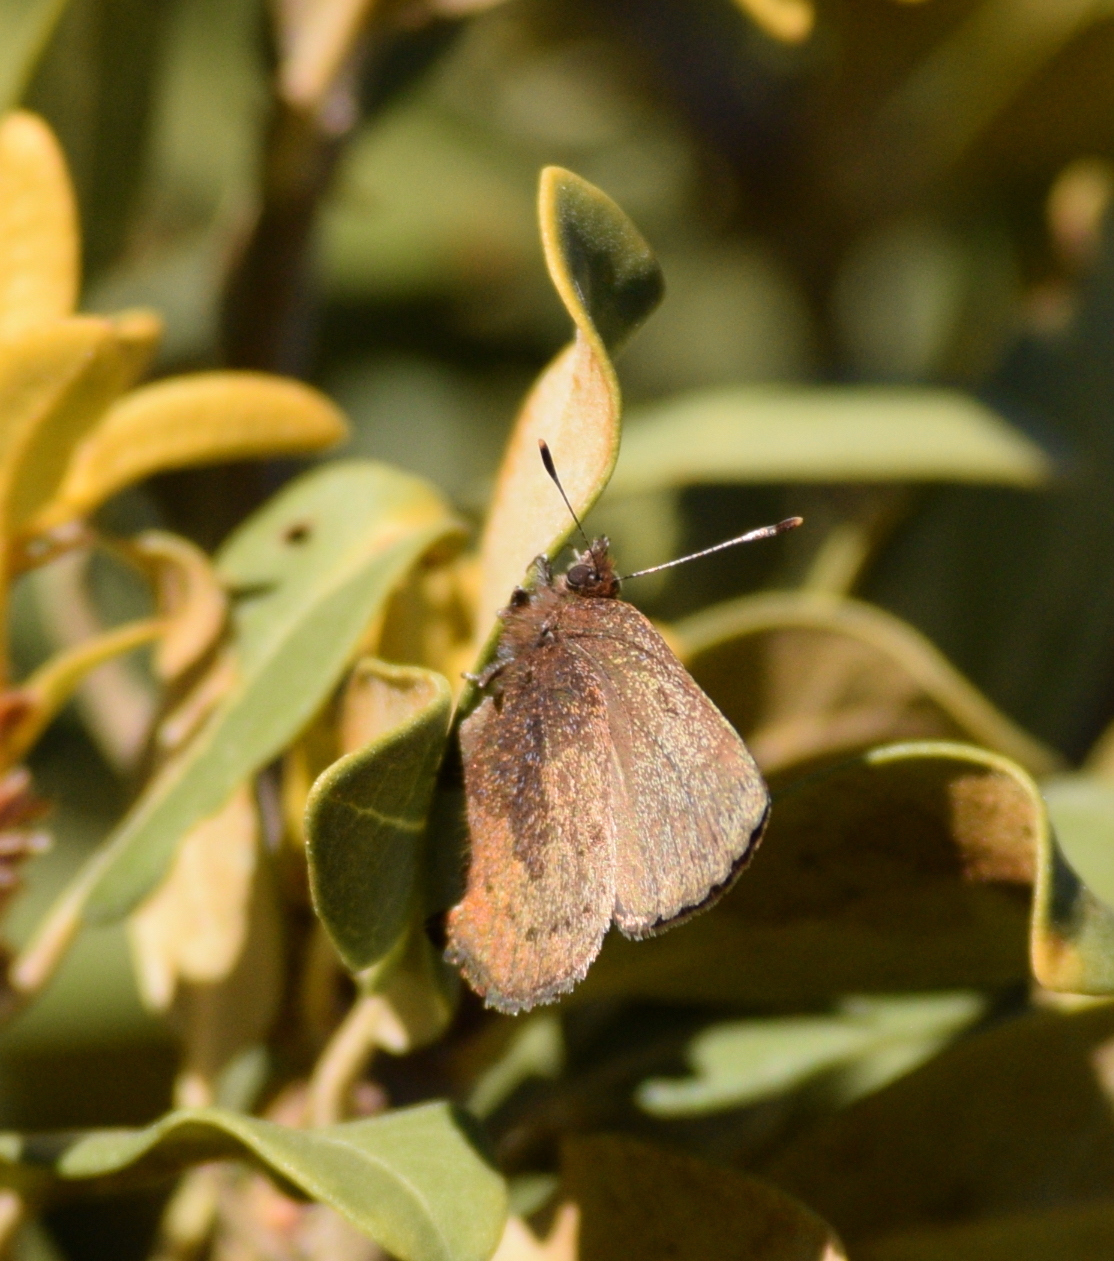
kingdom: Animalia
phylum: Arthropoda
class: Insecta
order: Lepidoptera
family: Lycaenidae
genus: Incisalia
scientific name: Incisalia irioides
